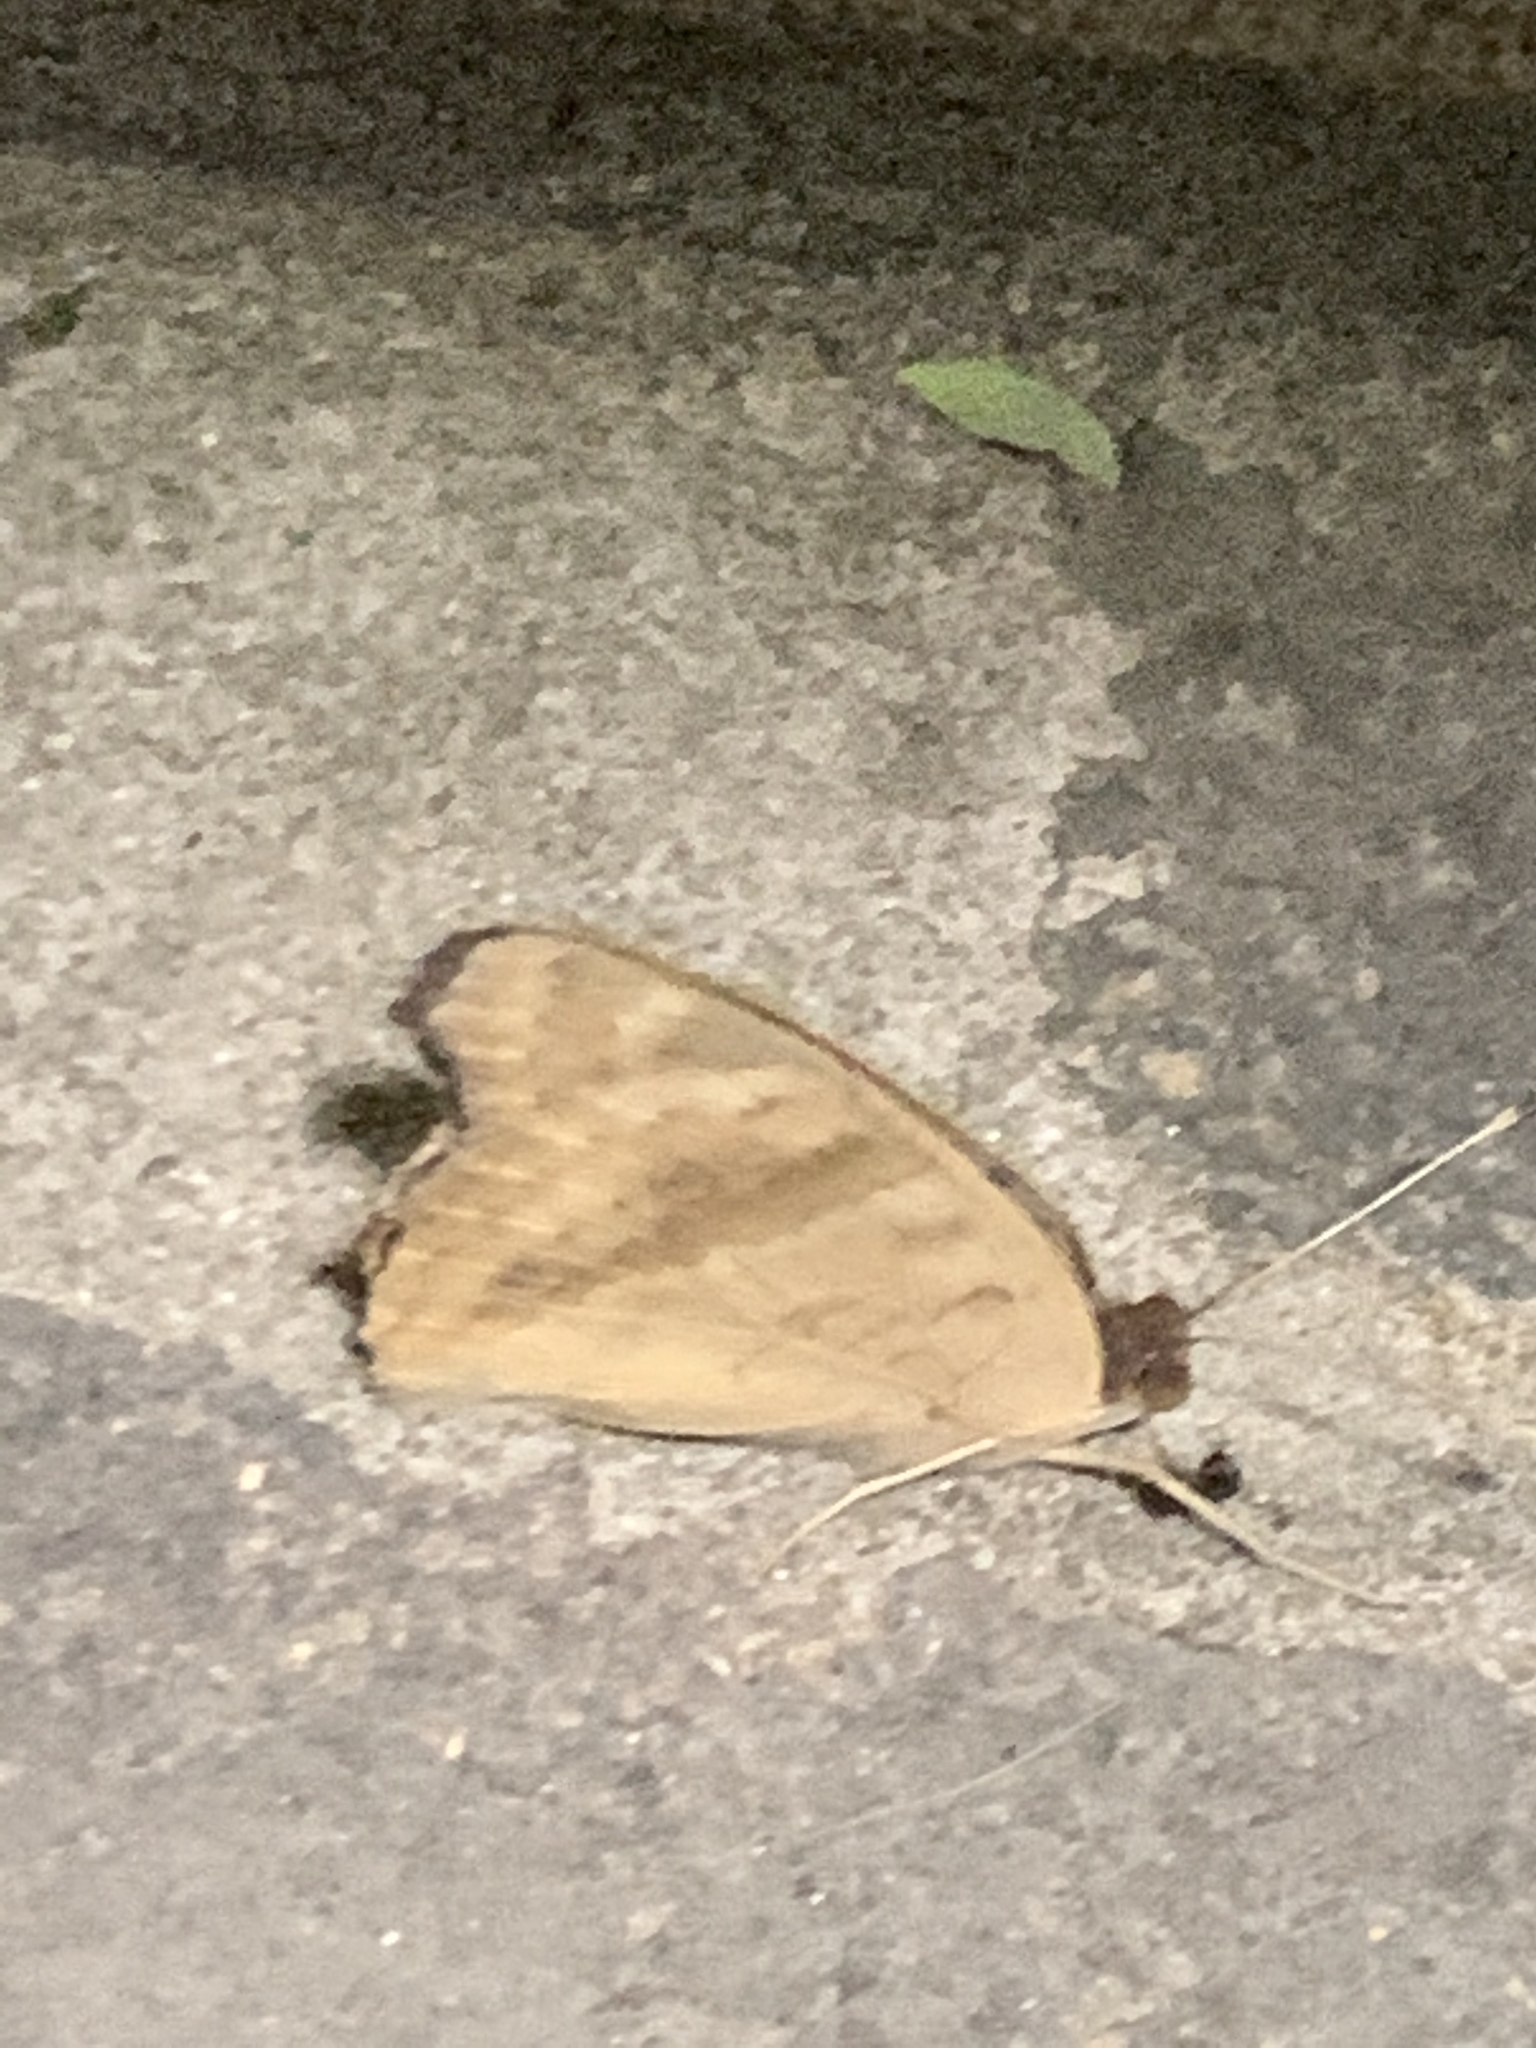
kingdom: Animalia
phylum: Arthropoda
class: Insecta
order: Lepidoptera
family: Nymphalidae
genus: Junonia
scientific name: Junonia lavinia
